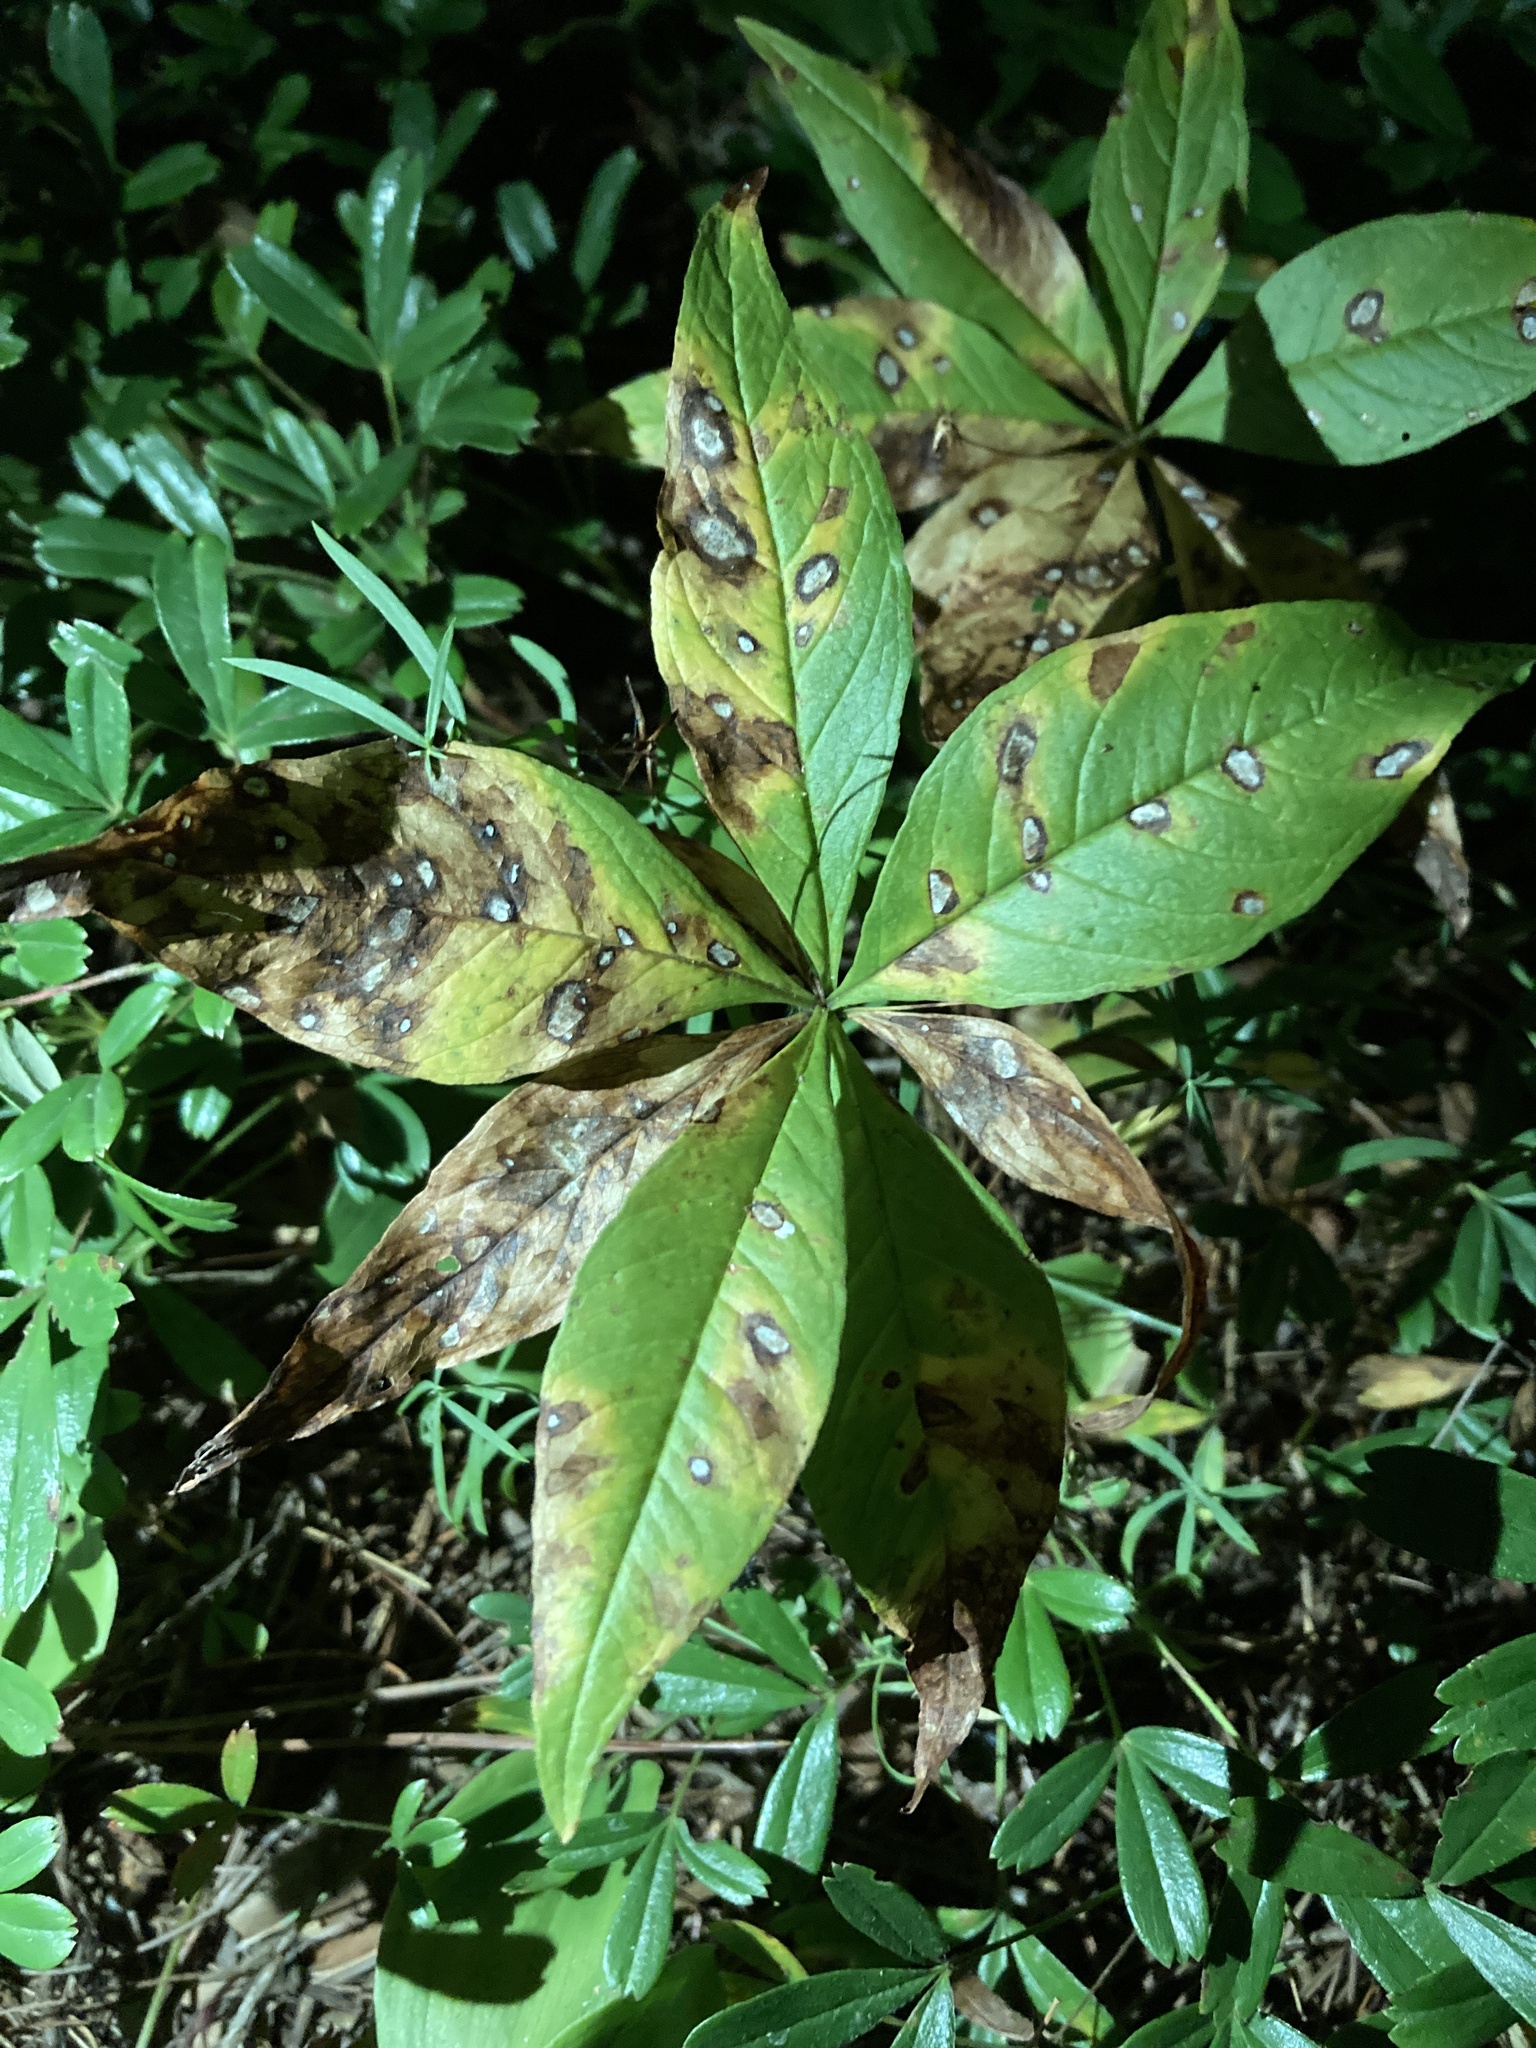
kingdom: Plantae
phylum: Tracheophyta
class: Magnoliopsida
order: Ericales
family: Primulaceae
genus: Lysimachia
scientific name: Lysimachia borealis
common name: American starflower
